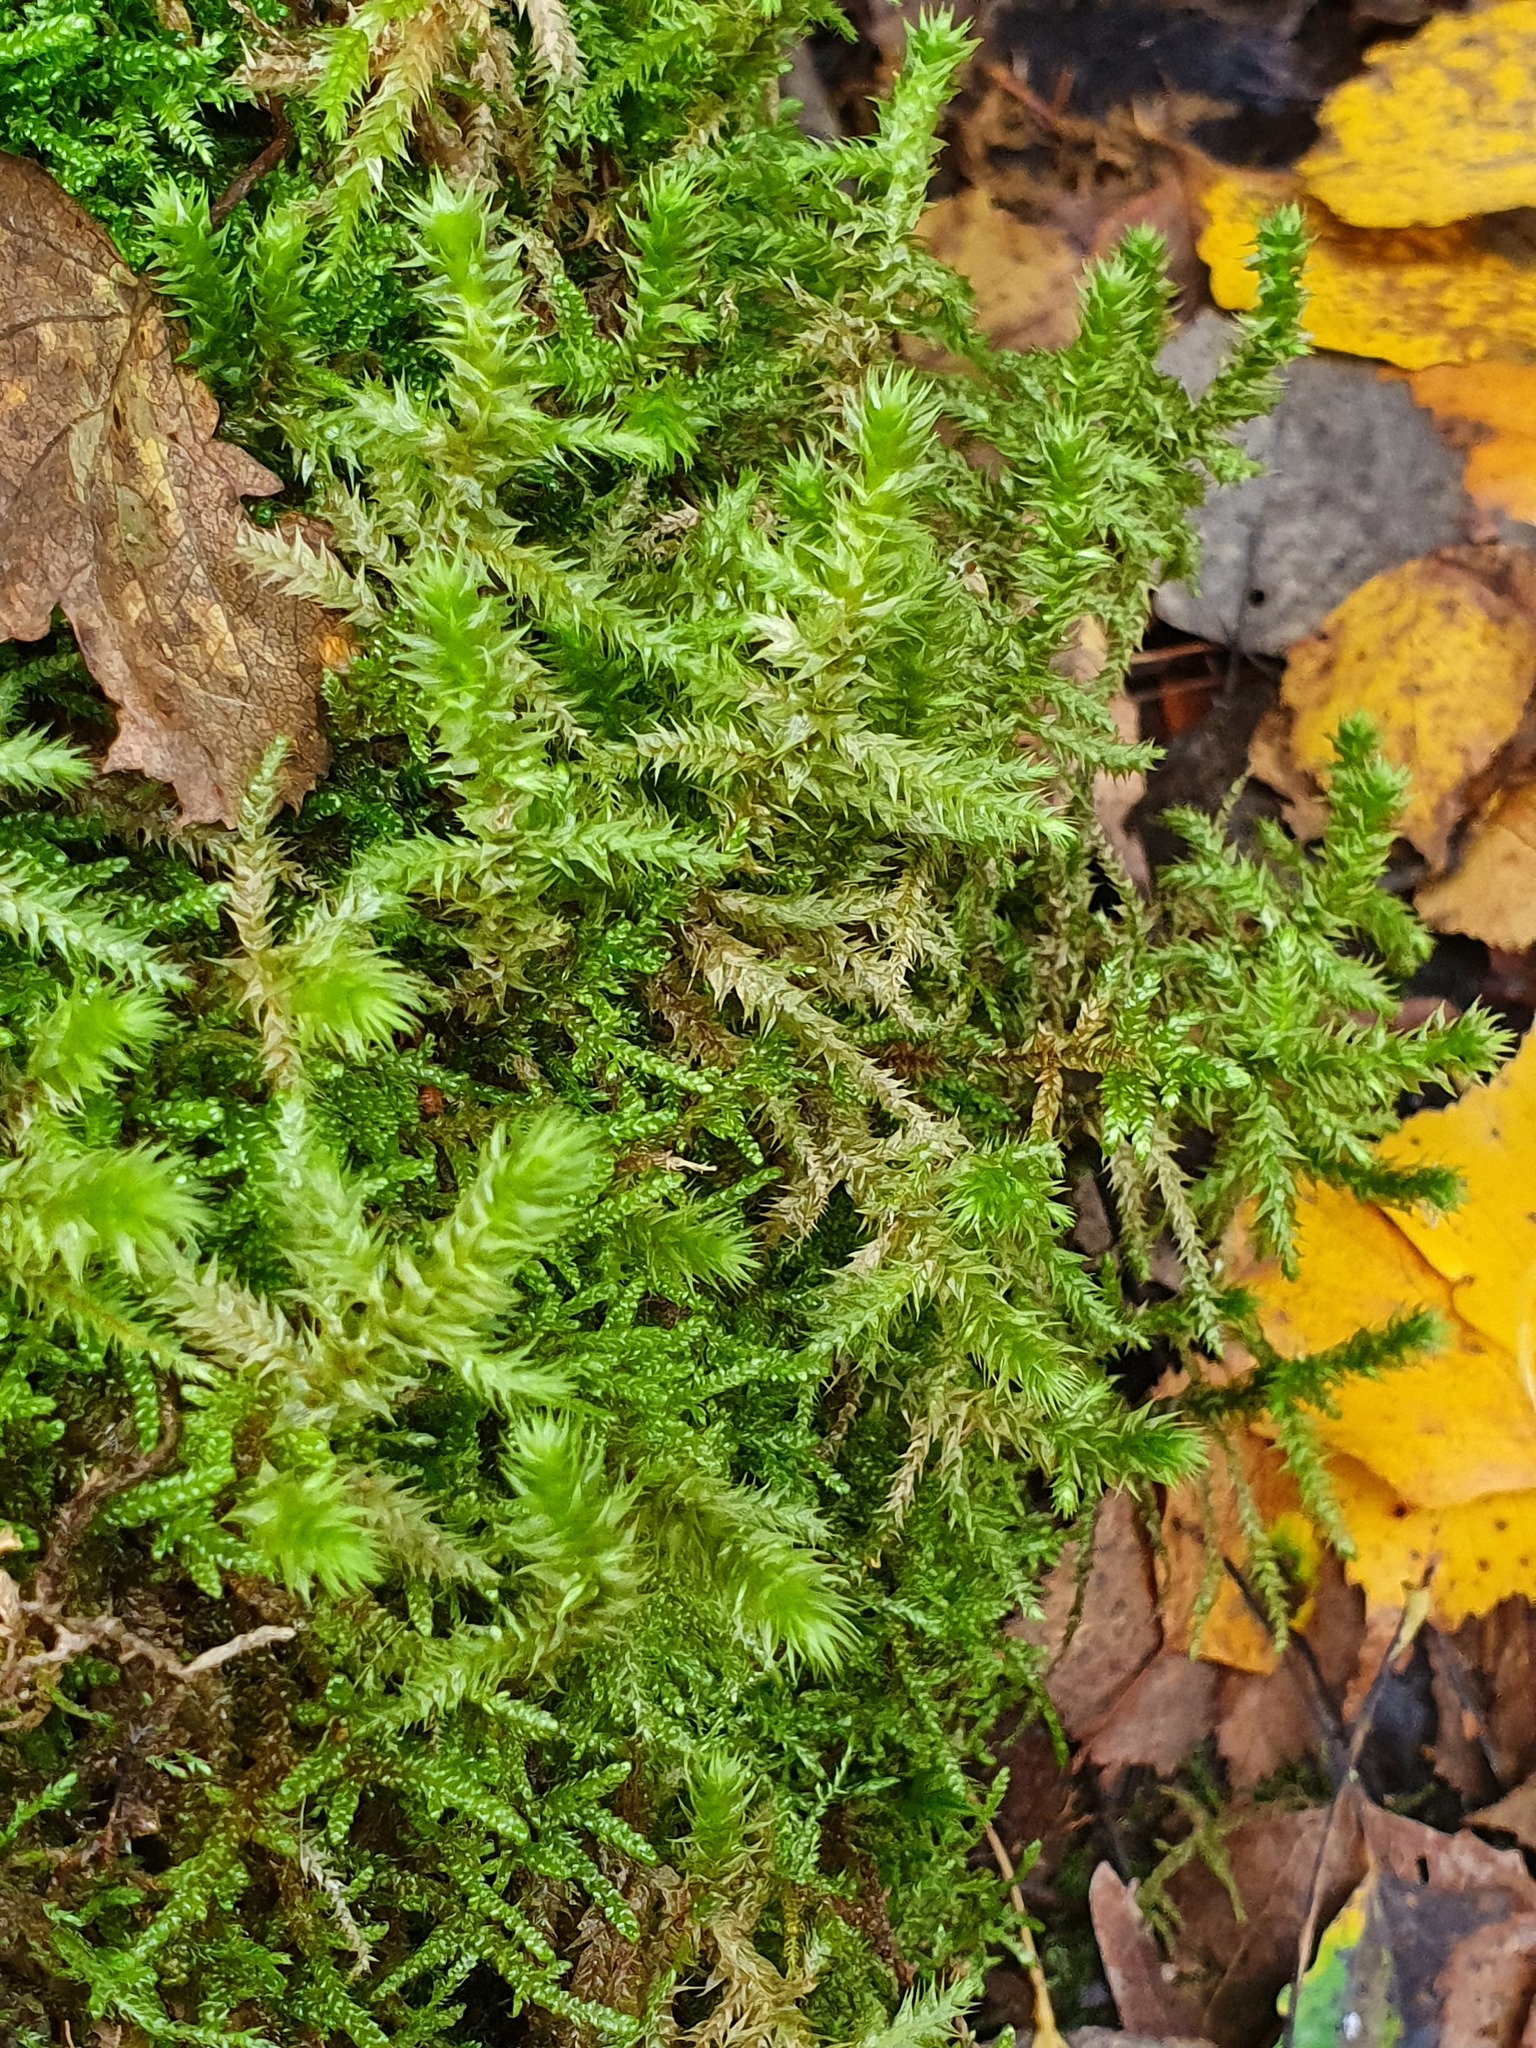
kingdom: Plantae
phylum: Bryophyta
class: Bryopsida
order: Hypnales
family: Hylocomiaceae
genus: Hylocomiadelphus
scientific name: Hylocomiadelphus triquetrus
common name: Rough goose neck moss
